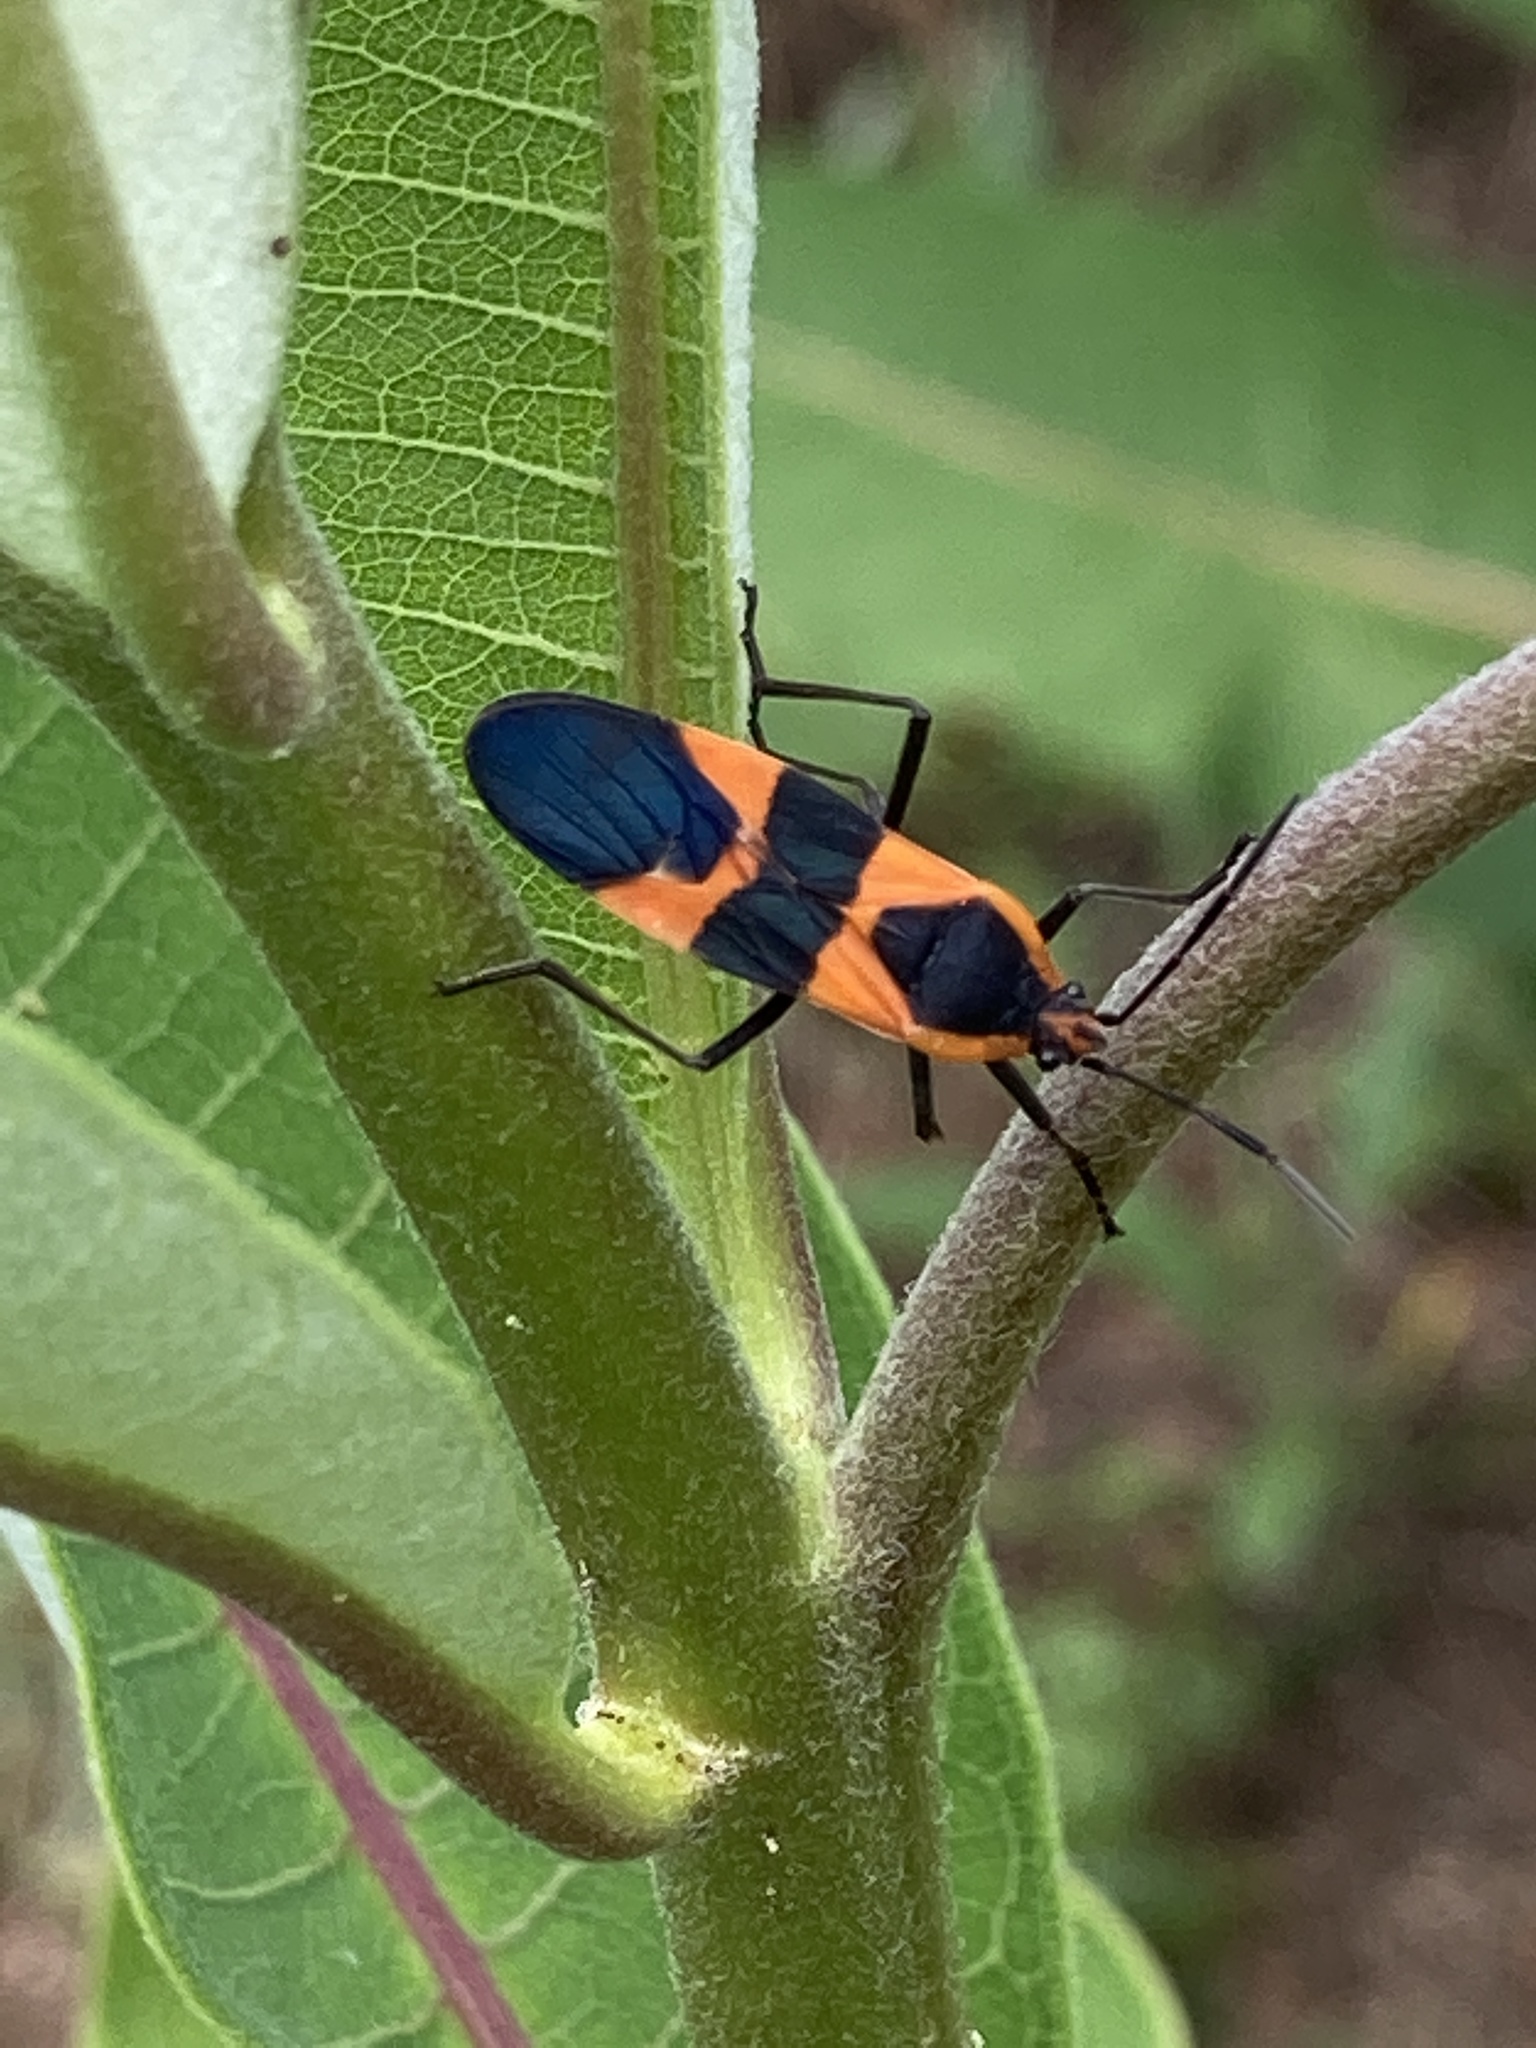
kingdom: Animalia
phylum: Arthropoda
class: Insecta
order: Hemiptera
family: Lygaeidae
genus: Oncopeltus
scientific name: Oncopeltus fasciatus
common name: Large milkweed bug
